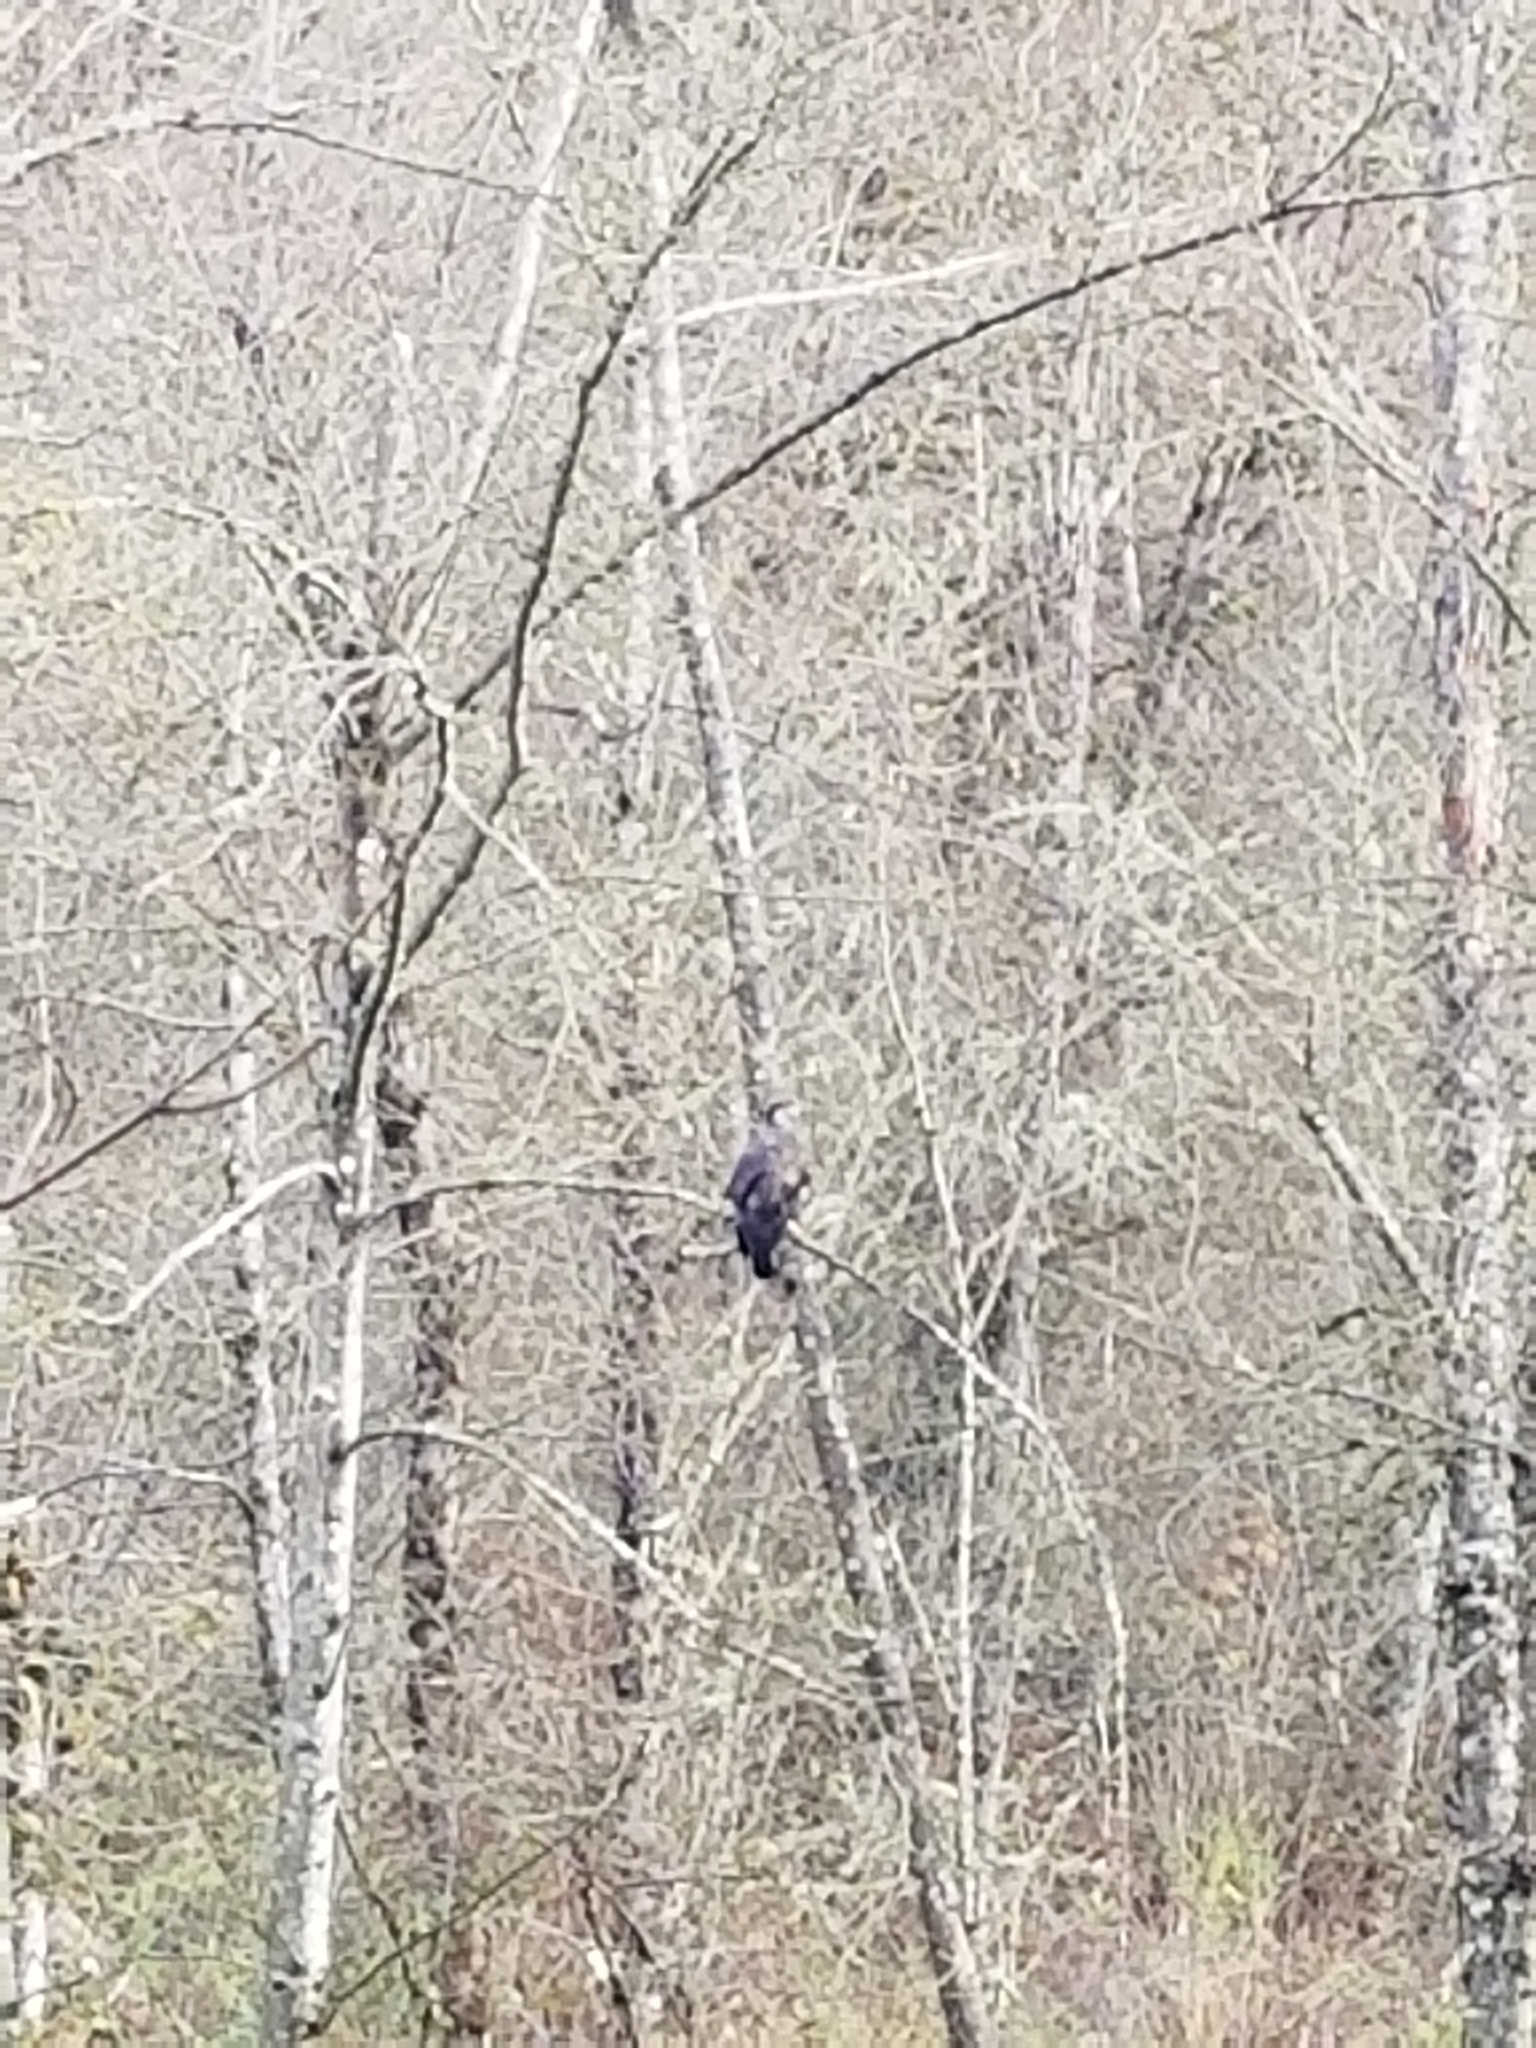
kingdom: Animalia
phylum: Chordata
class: Aves
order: Accipitriformes
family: Accipitridae
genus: Haliaeetus
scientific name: Haliaeetus leucocephalus
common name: Bald eagle
